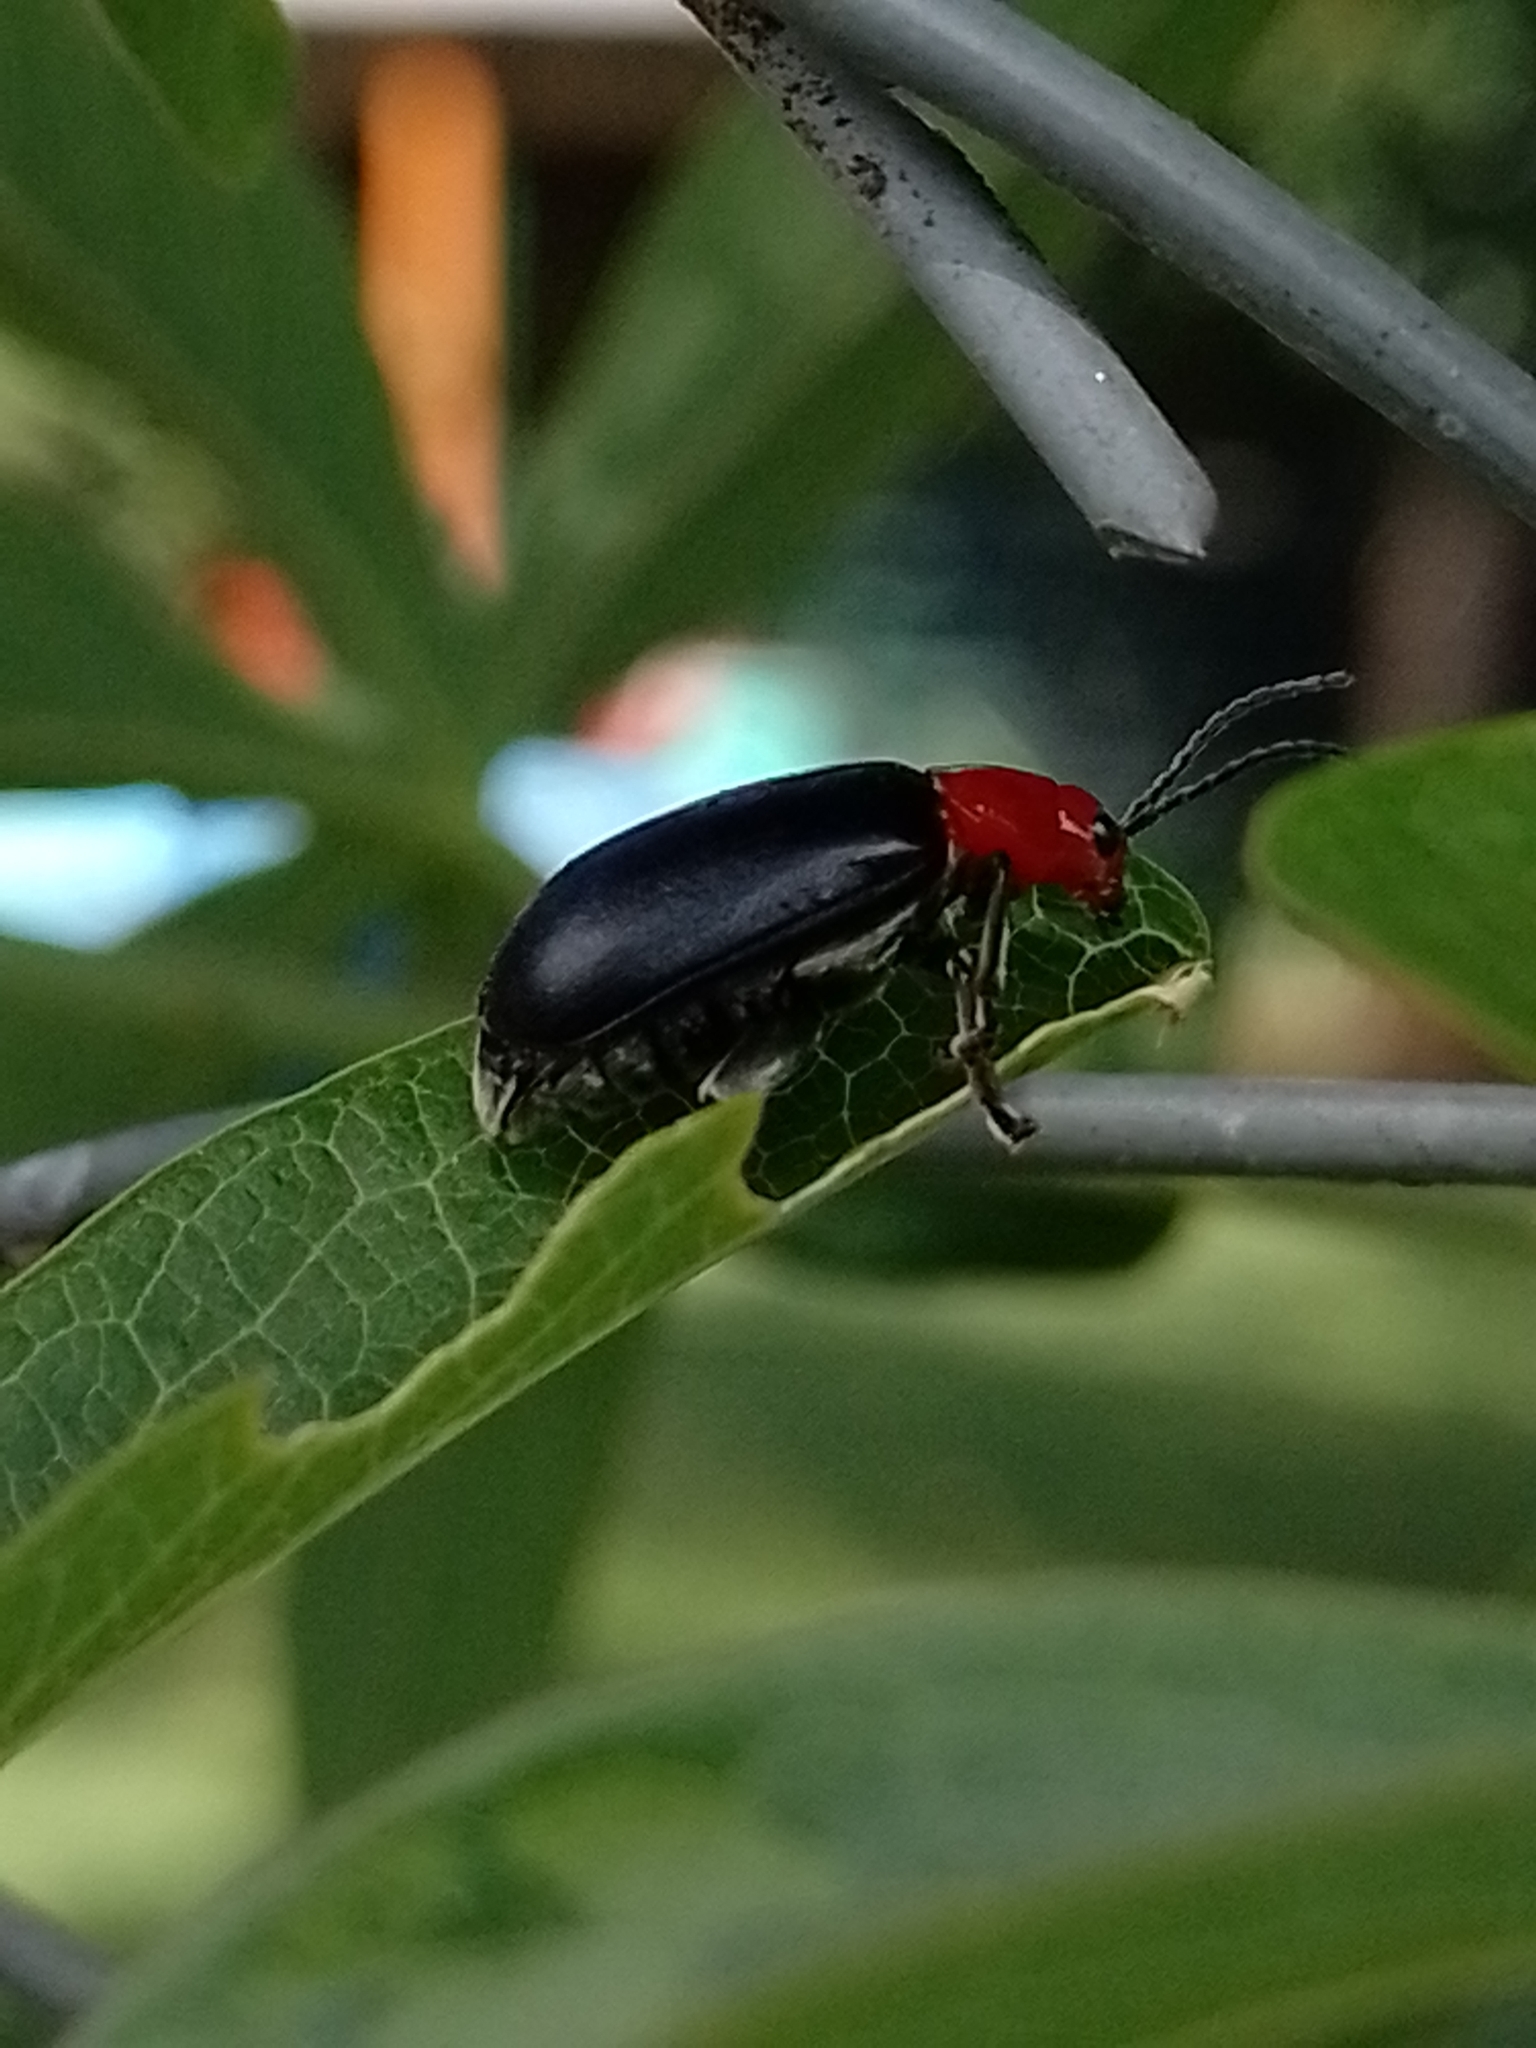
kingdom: Animalia
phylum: Arthropoda
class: Insecta
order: Coleoptera
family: Chrysomelidae
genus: Cacoscelis
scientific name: Cacoscelis
